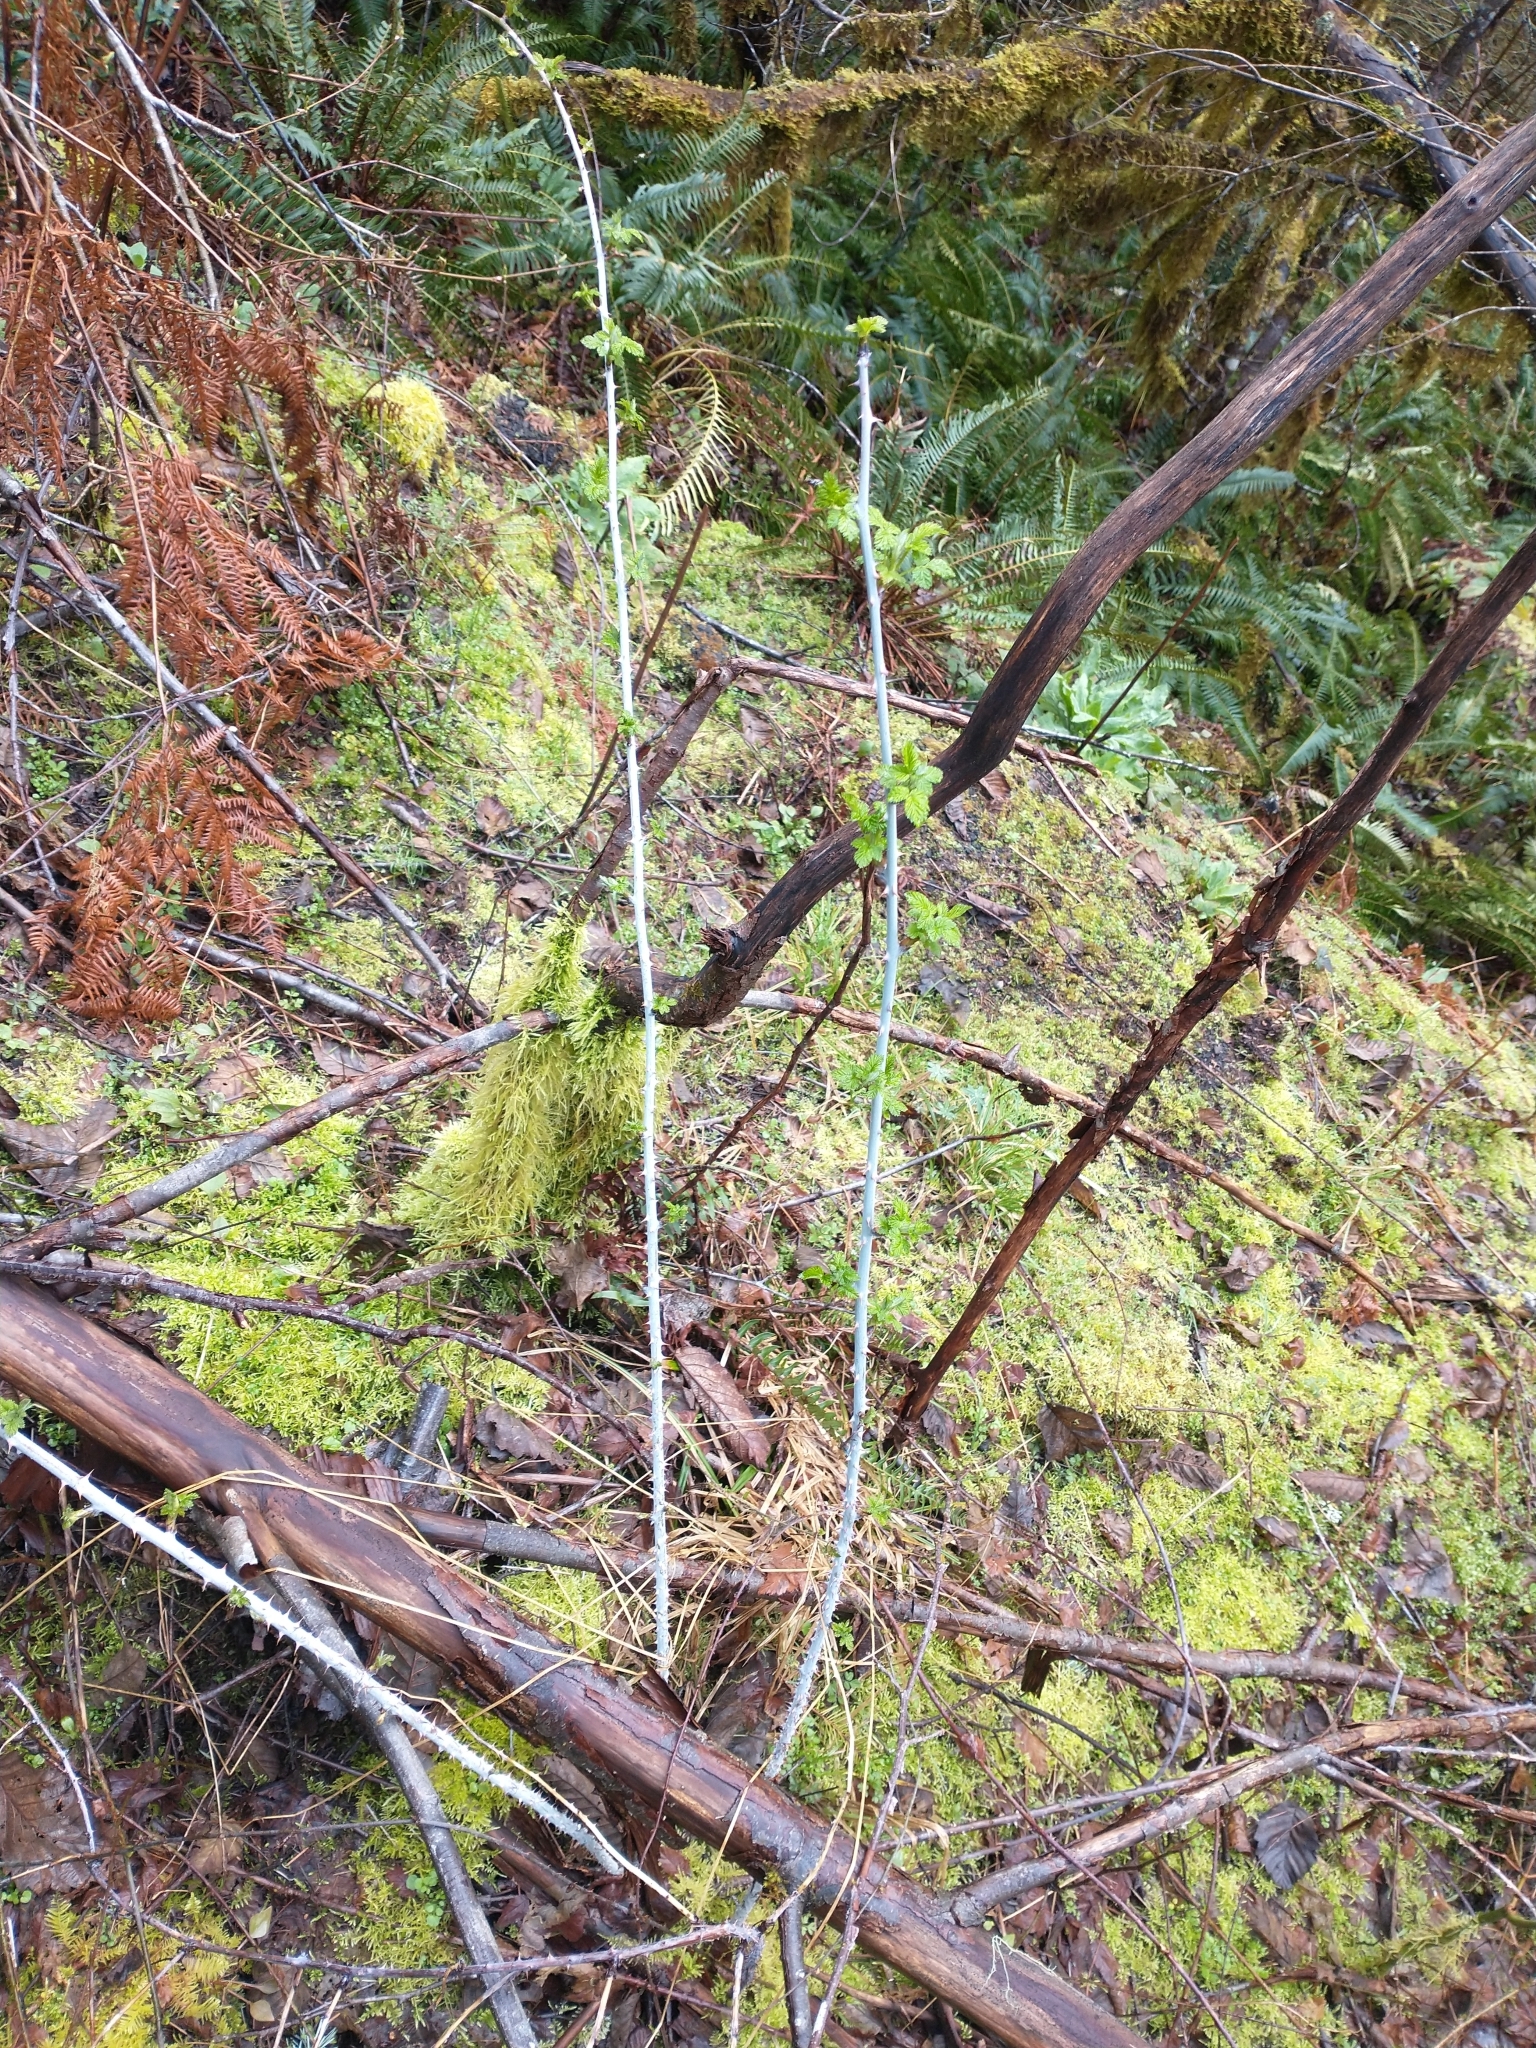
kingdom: Plantae
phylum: Tracheophyta
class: Magnoliopsida
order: Rosales
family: Rosaceae
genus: Rubus
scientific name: Rubus leucodermis
